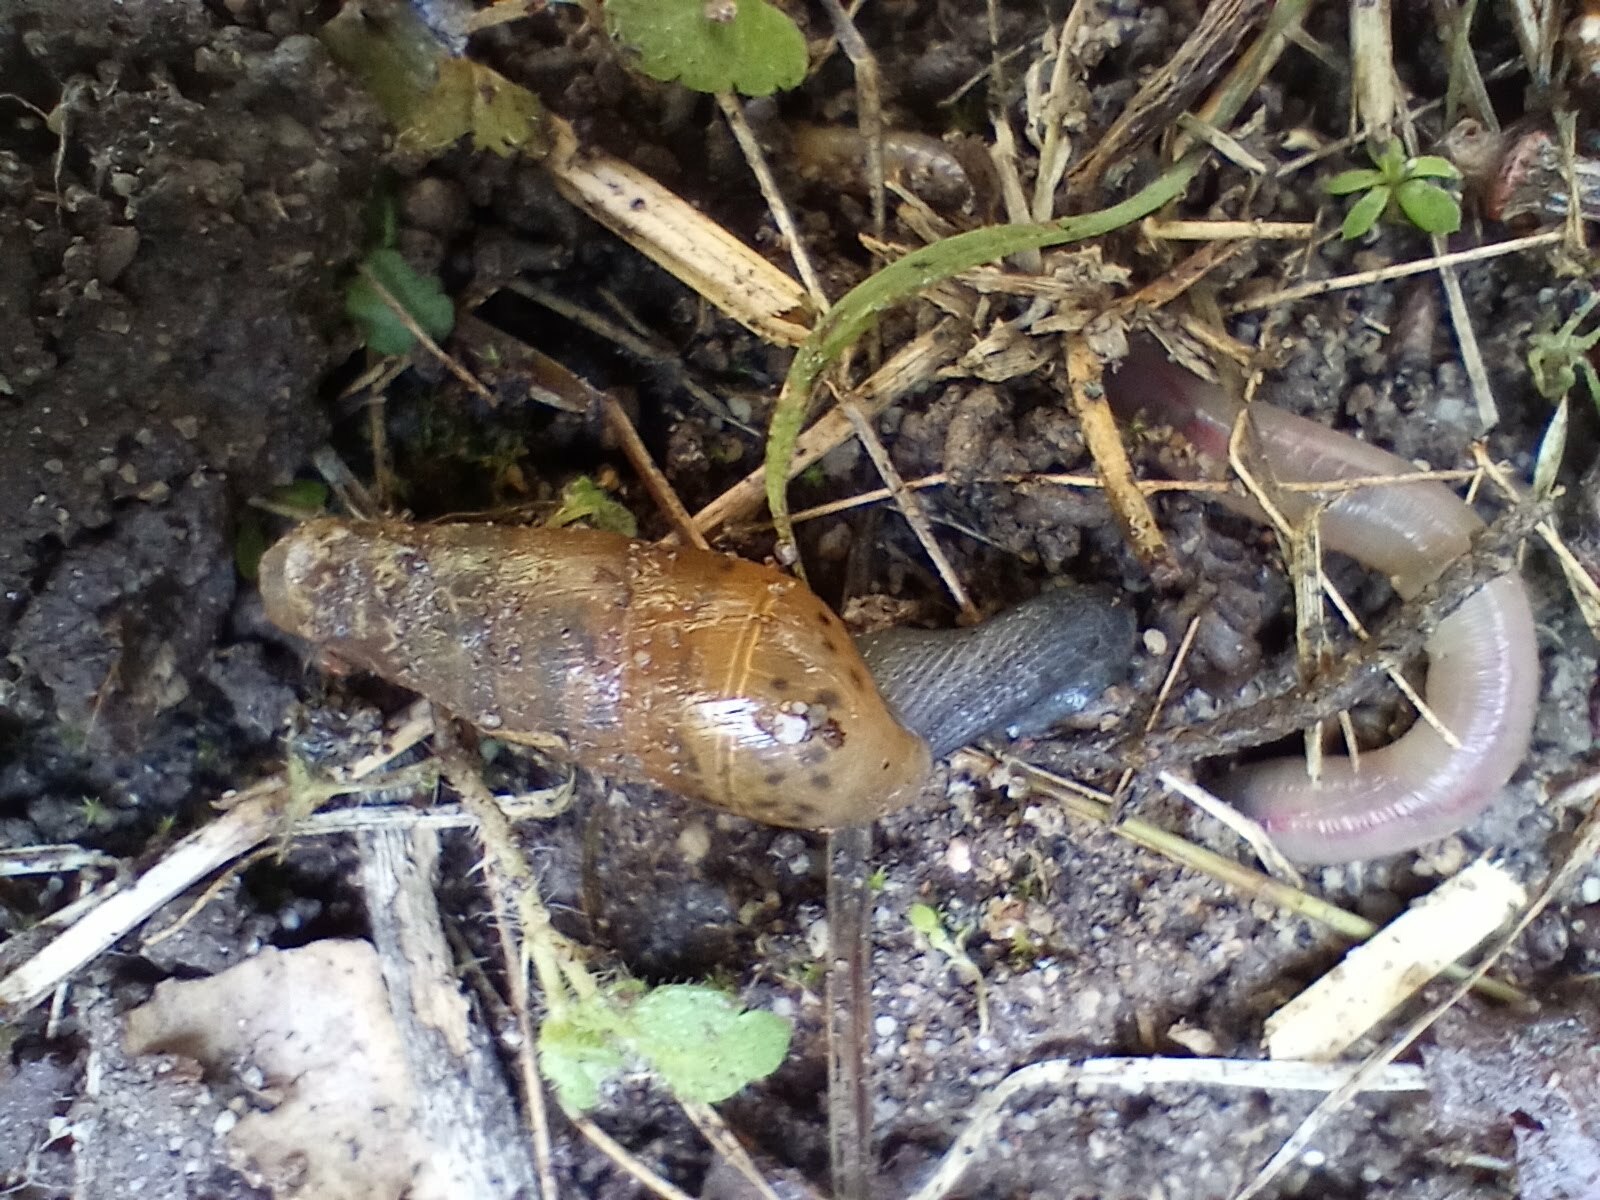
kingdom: Animalia
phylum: Mollusca
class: Gastropoda
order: Stylommatophora
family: Achatinidae
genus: Rumina
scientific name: Rumina decollata
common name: Decollate snail
